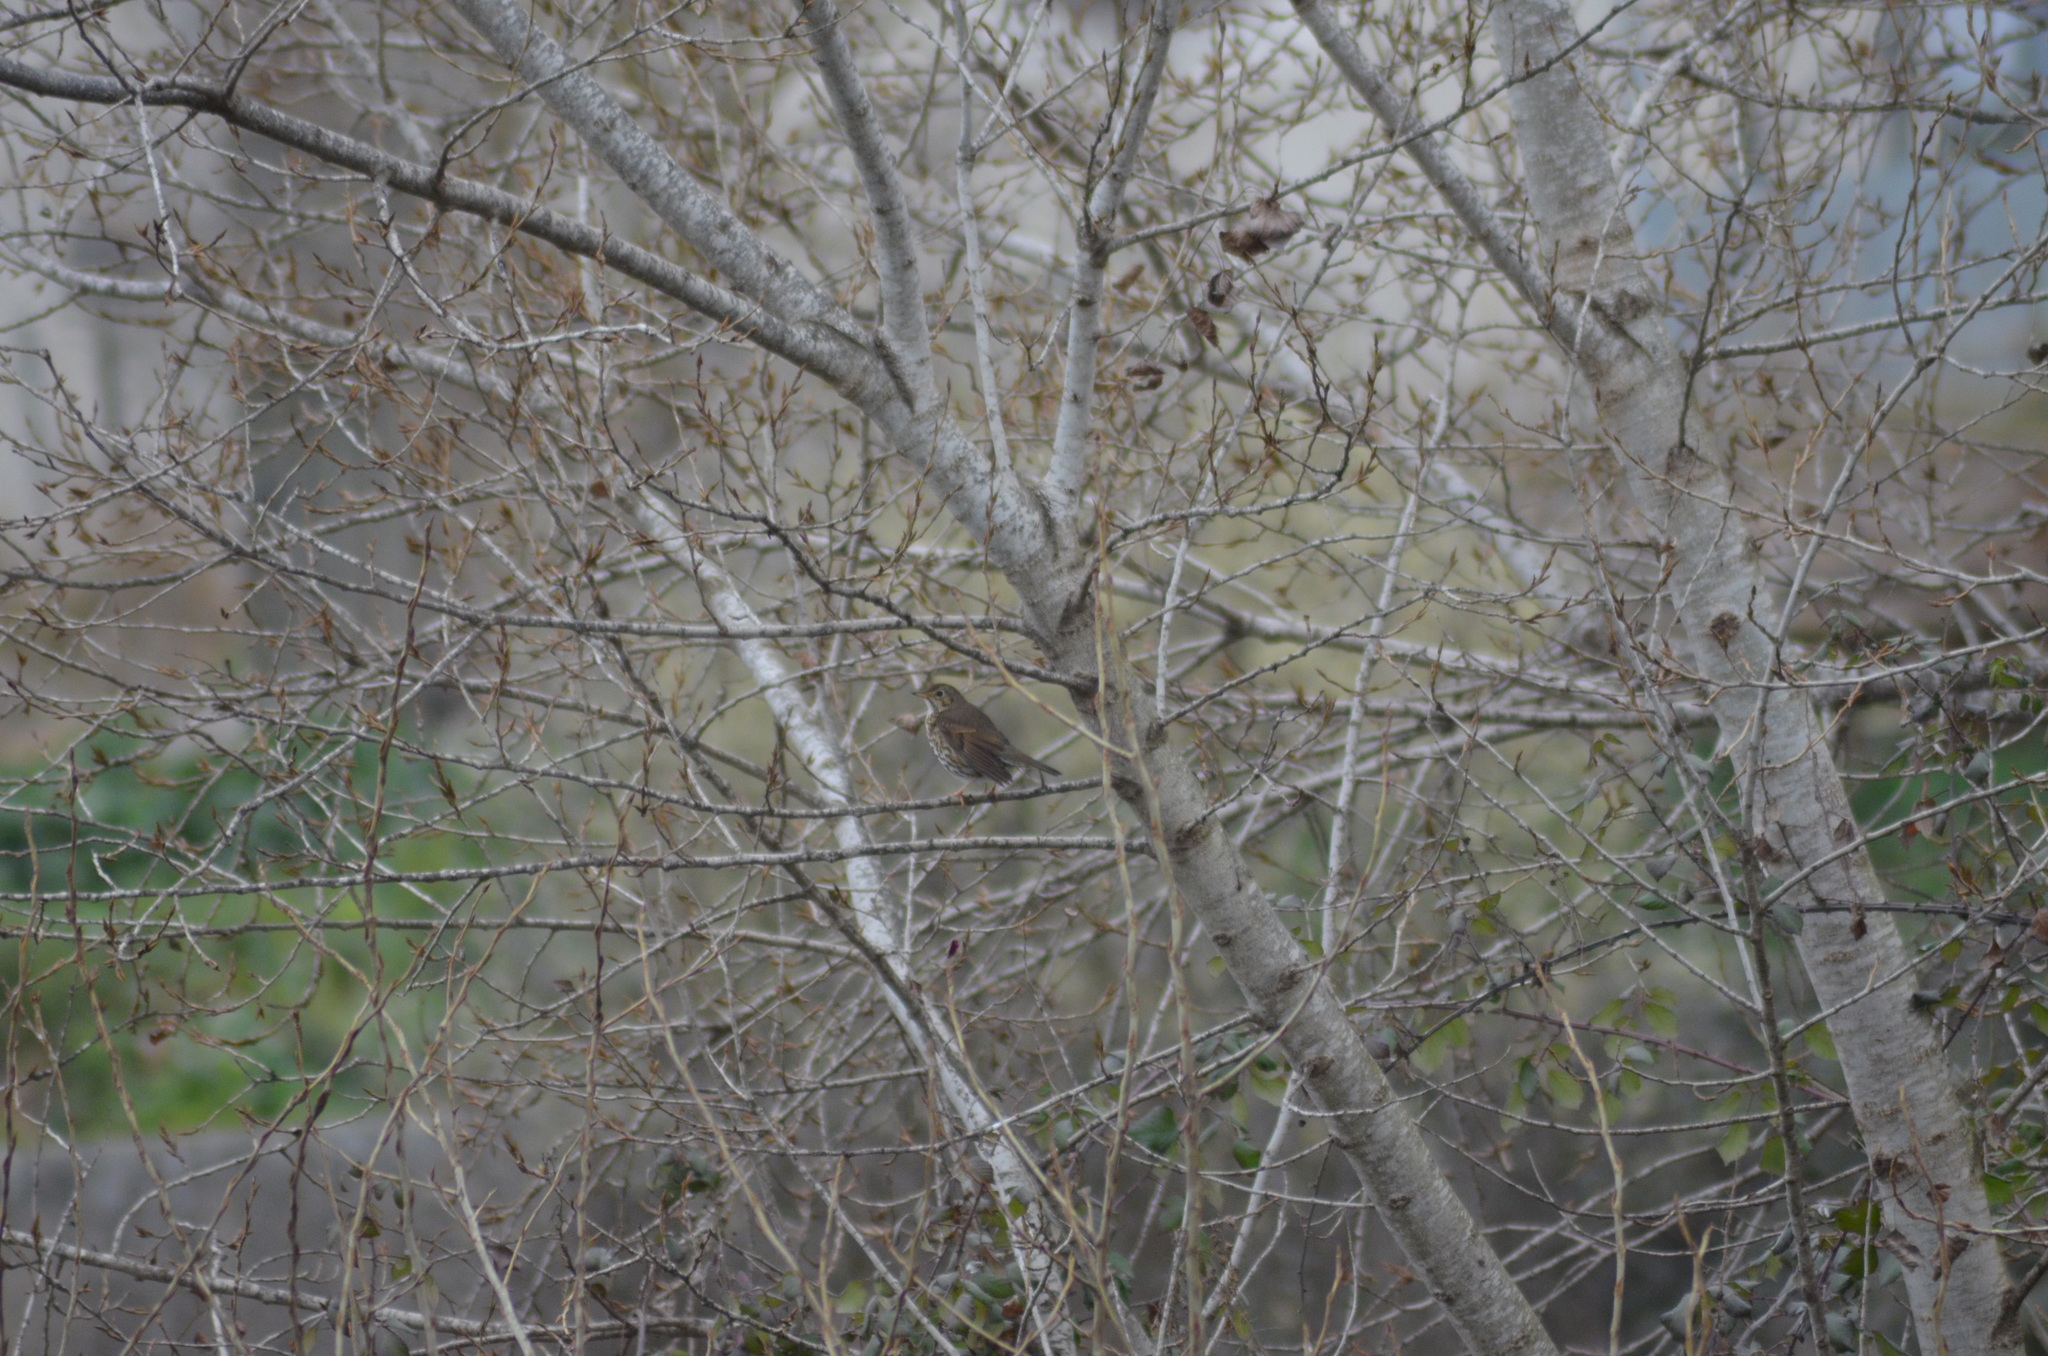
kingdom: Animalia
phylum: Chordata
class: Aves
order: Passeriformes
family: Turdidae
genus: Turdus
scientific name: Turdus philomelos
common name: Song thrush
